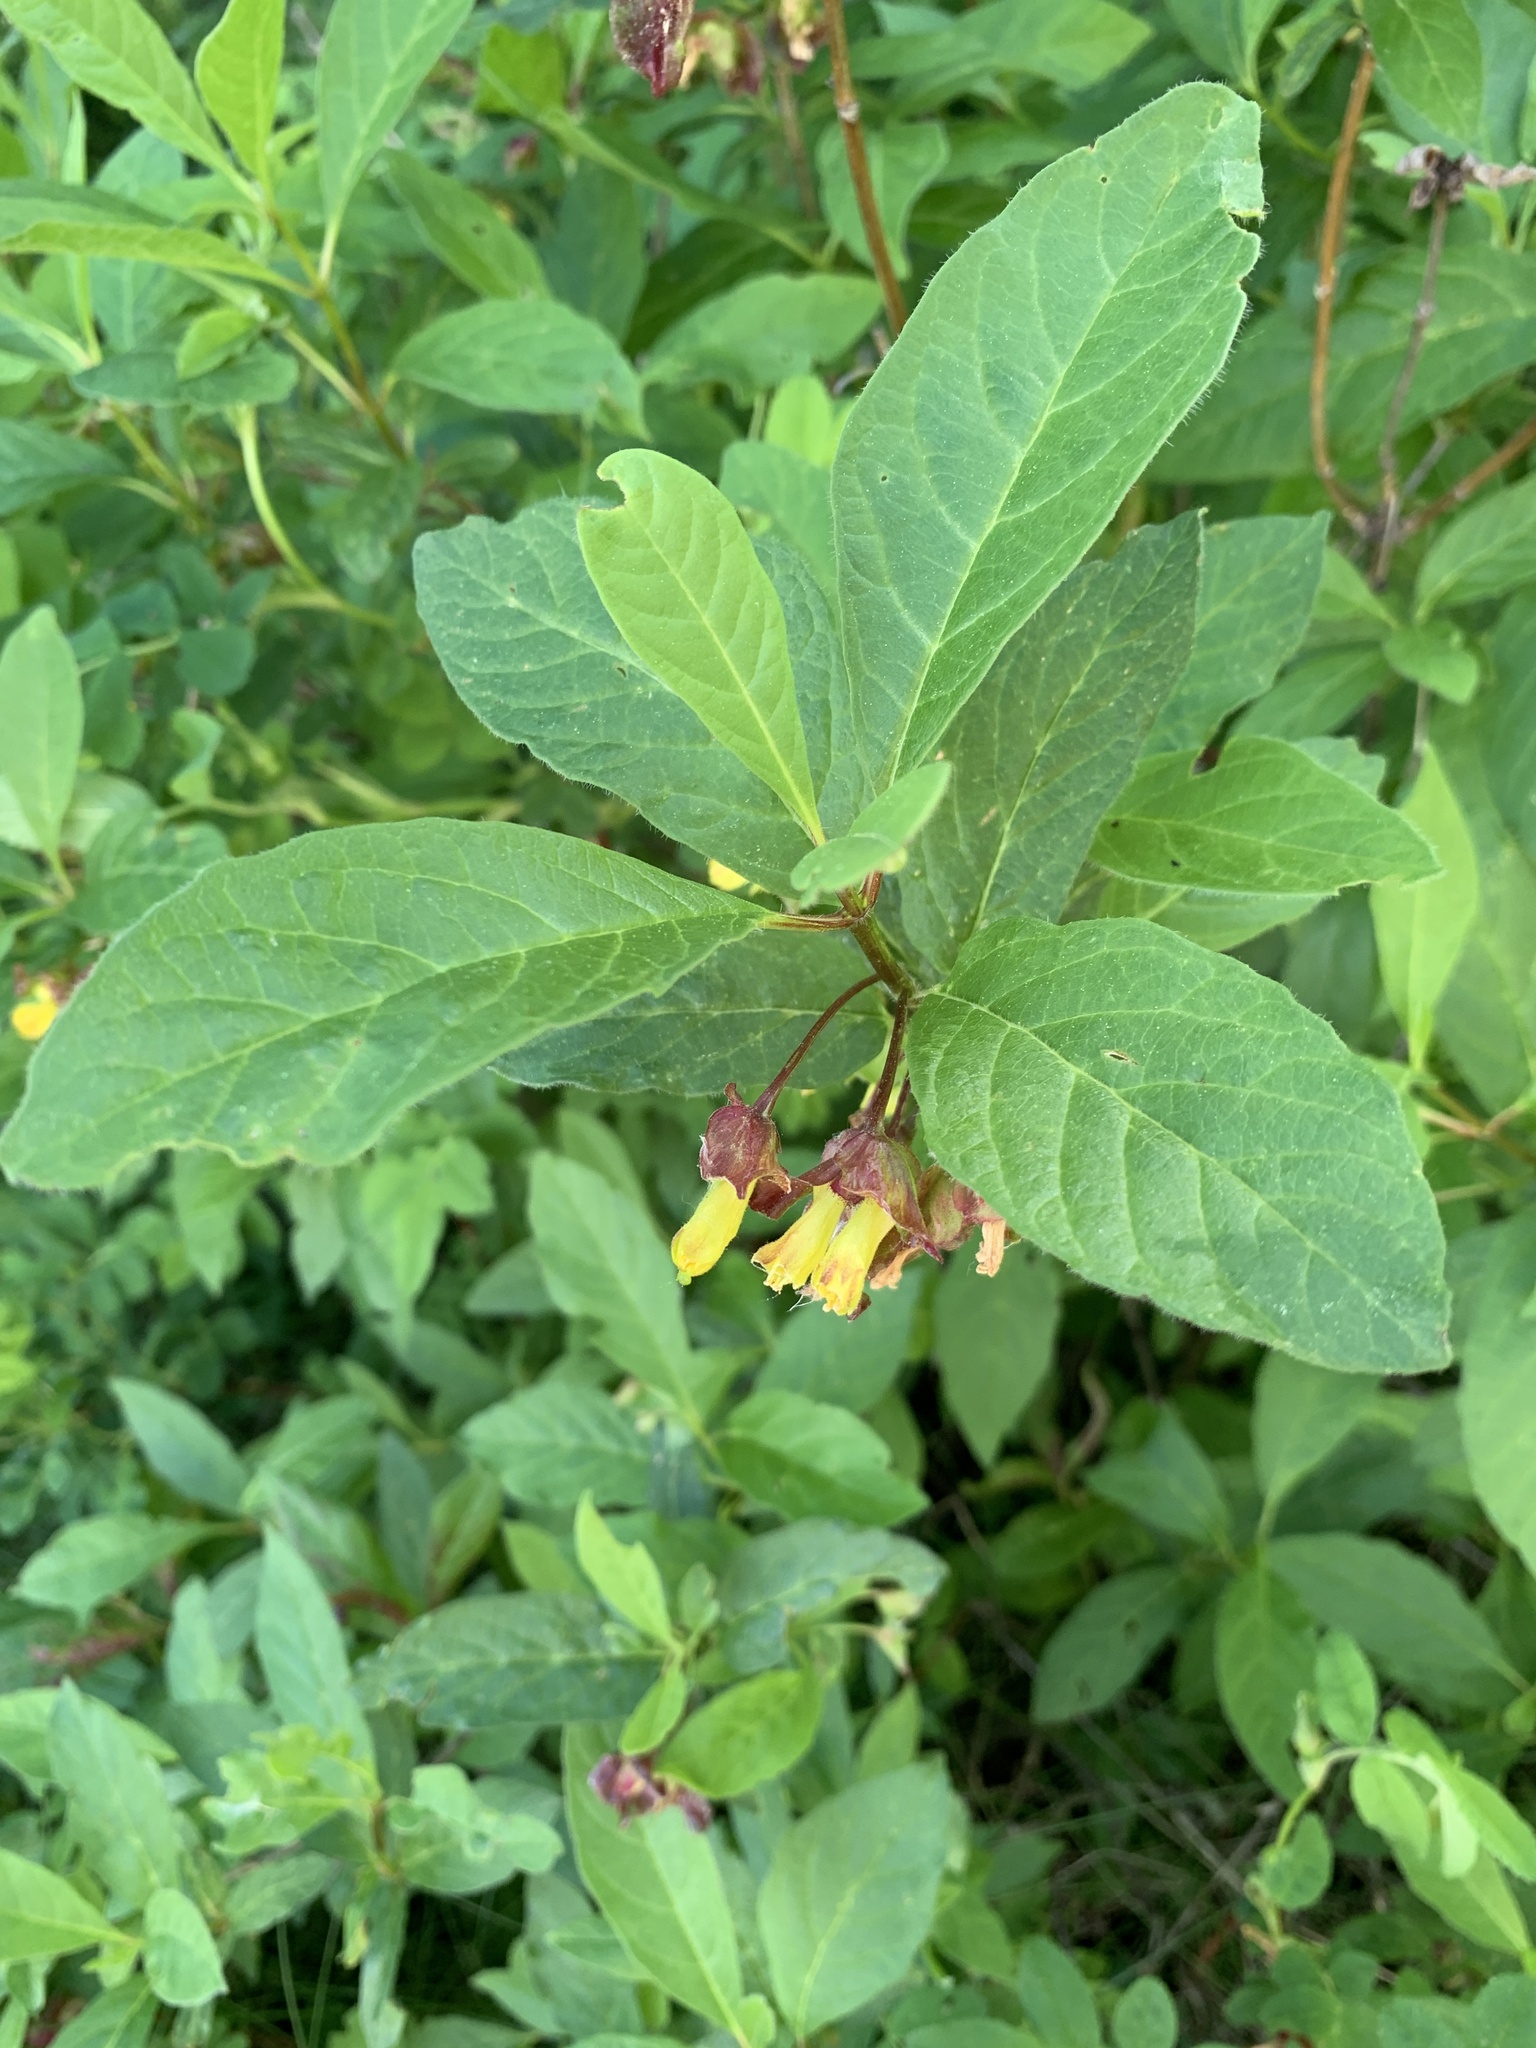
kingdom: Plantae
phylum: Tracheophyta
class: Magnoliopsida
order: Dipsacales
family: Caprifoliaceae
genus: Lonicera
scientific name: Lonicera involucrata
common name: Californian honeysuckle
